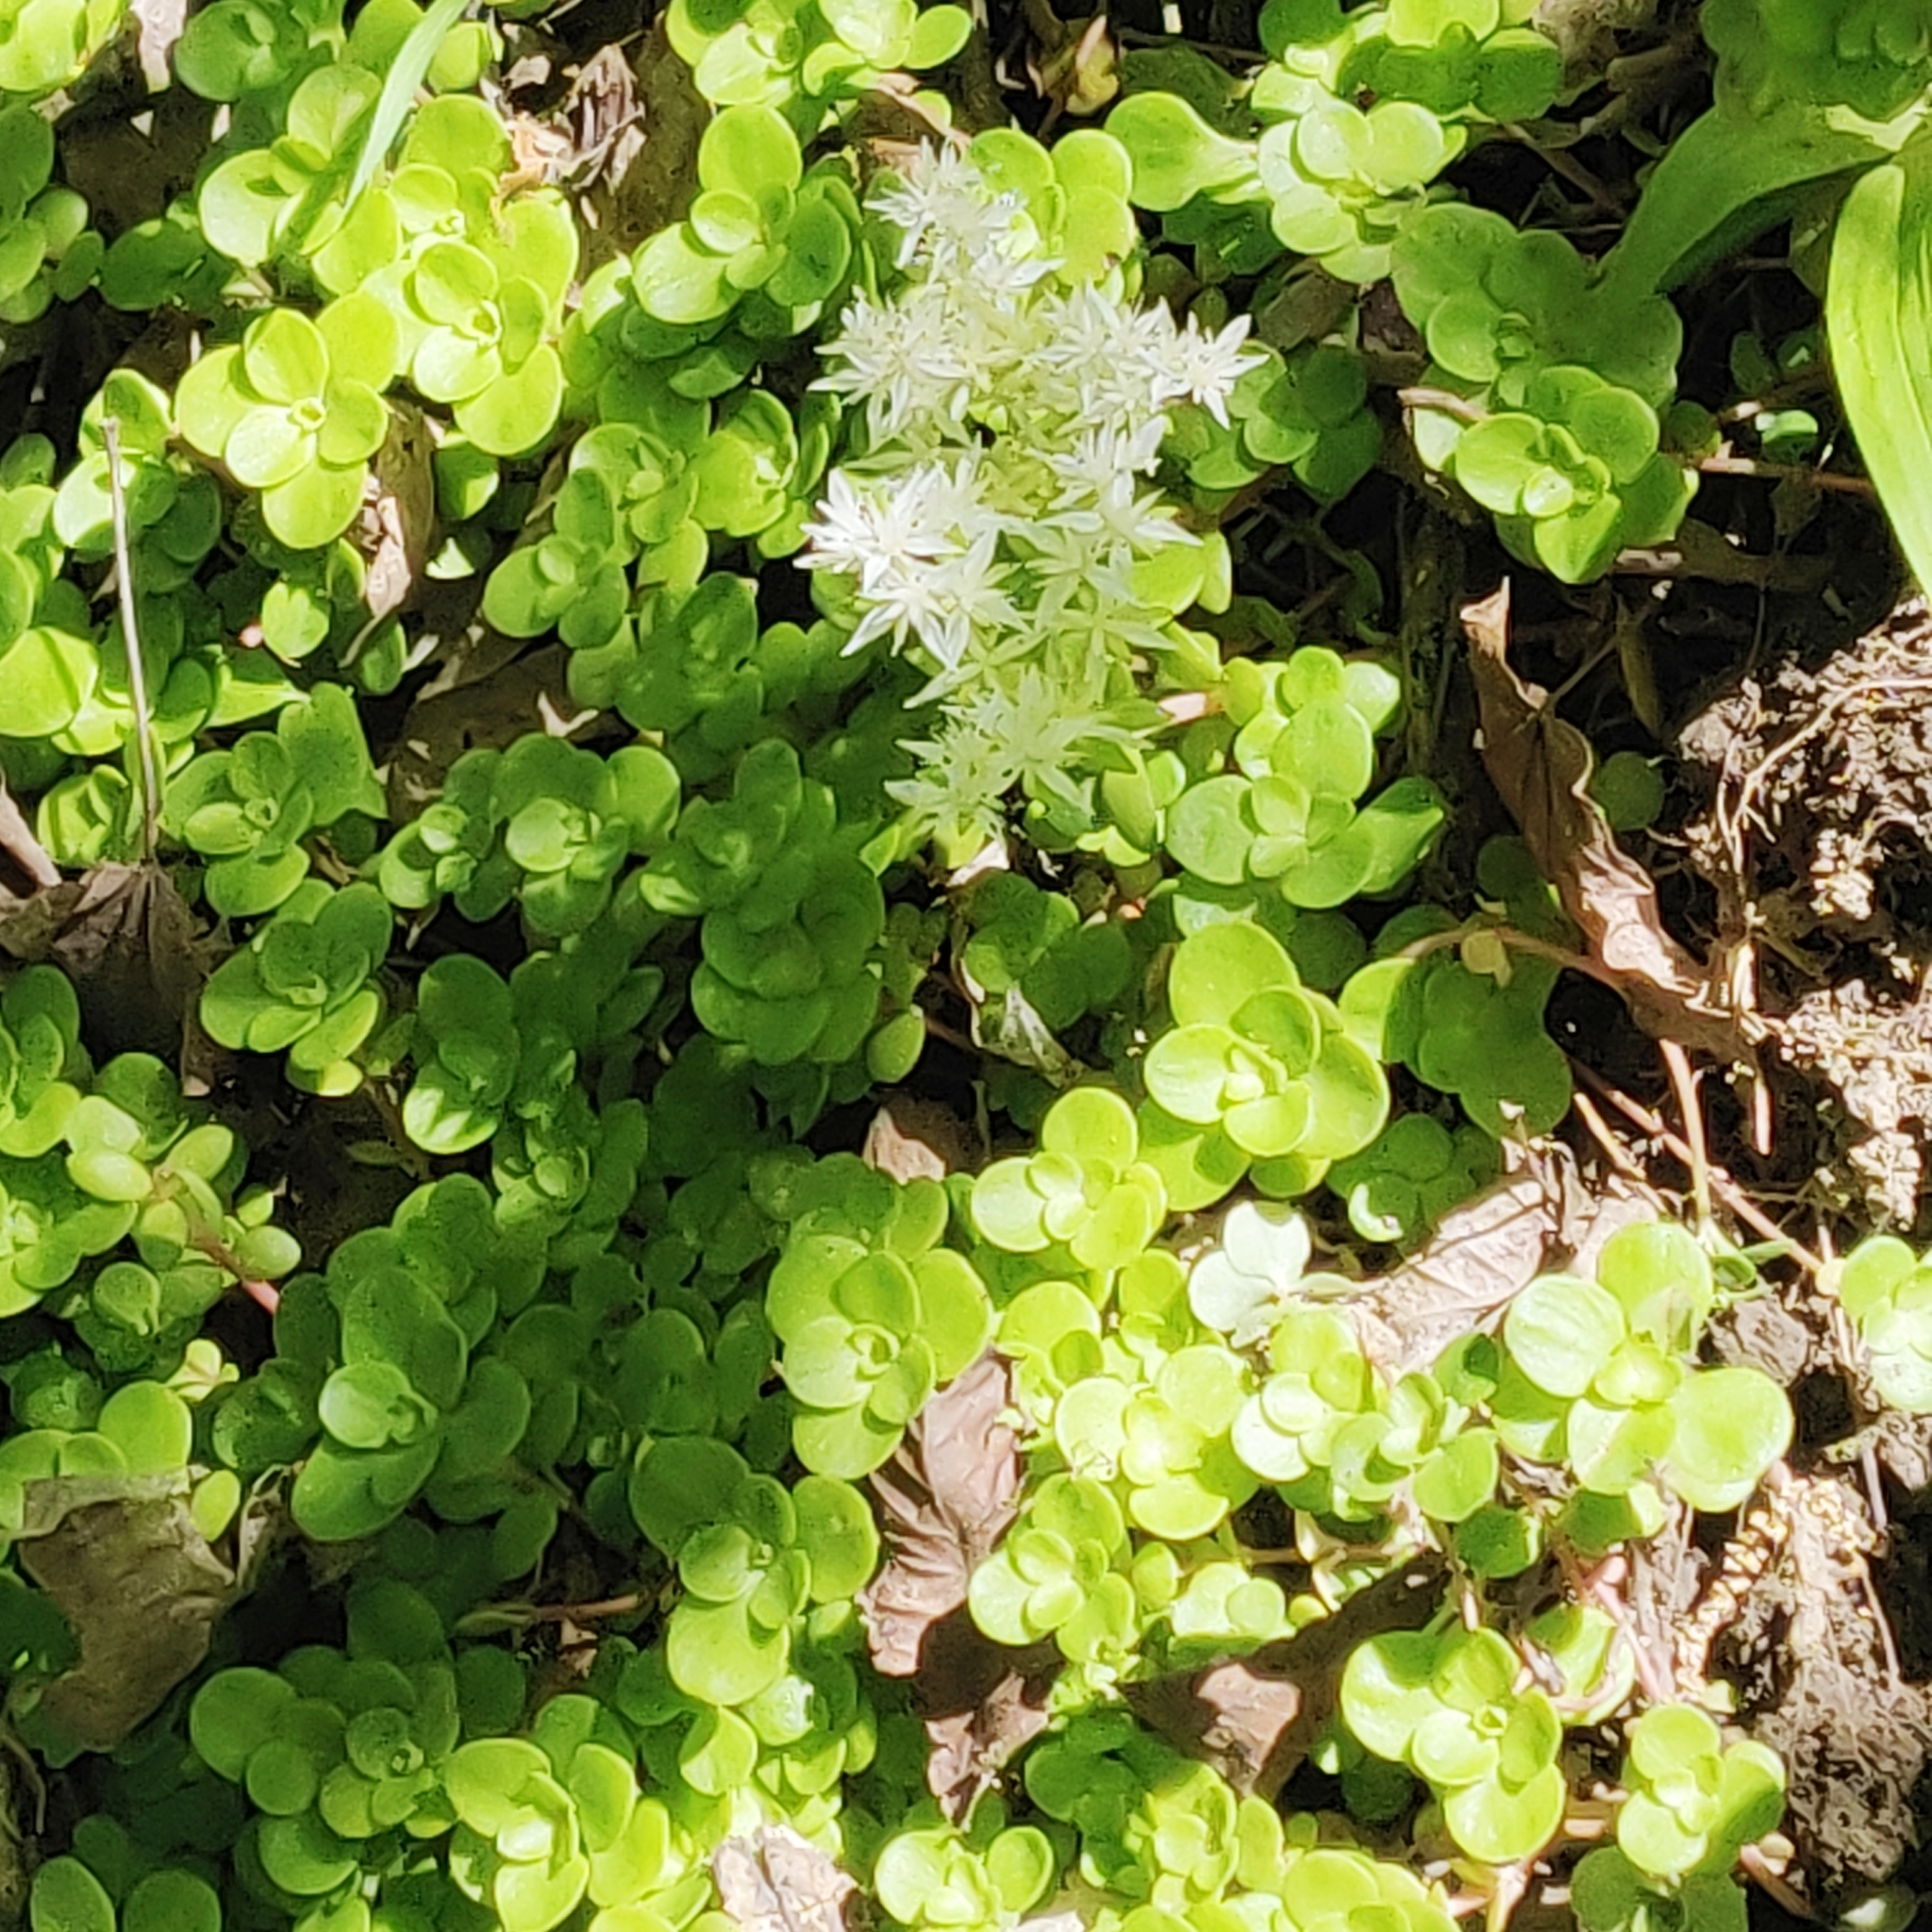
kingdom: Plantae
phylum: Tracheophyta
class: Magnoliopsida
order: Saxifragales
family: Crassulaceae
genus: Sedum
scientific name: Sedum ternatum
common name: Wild stonecrop
